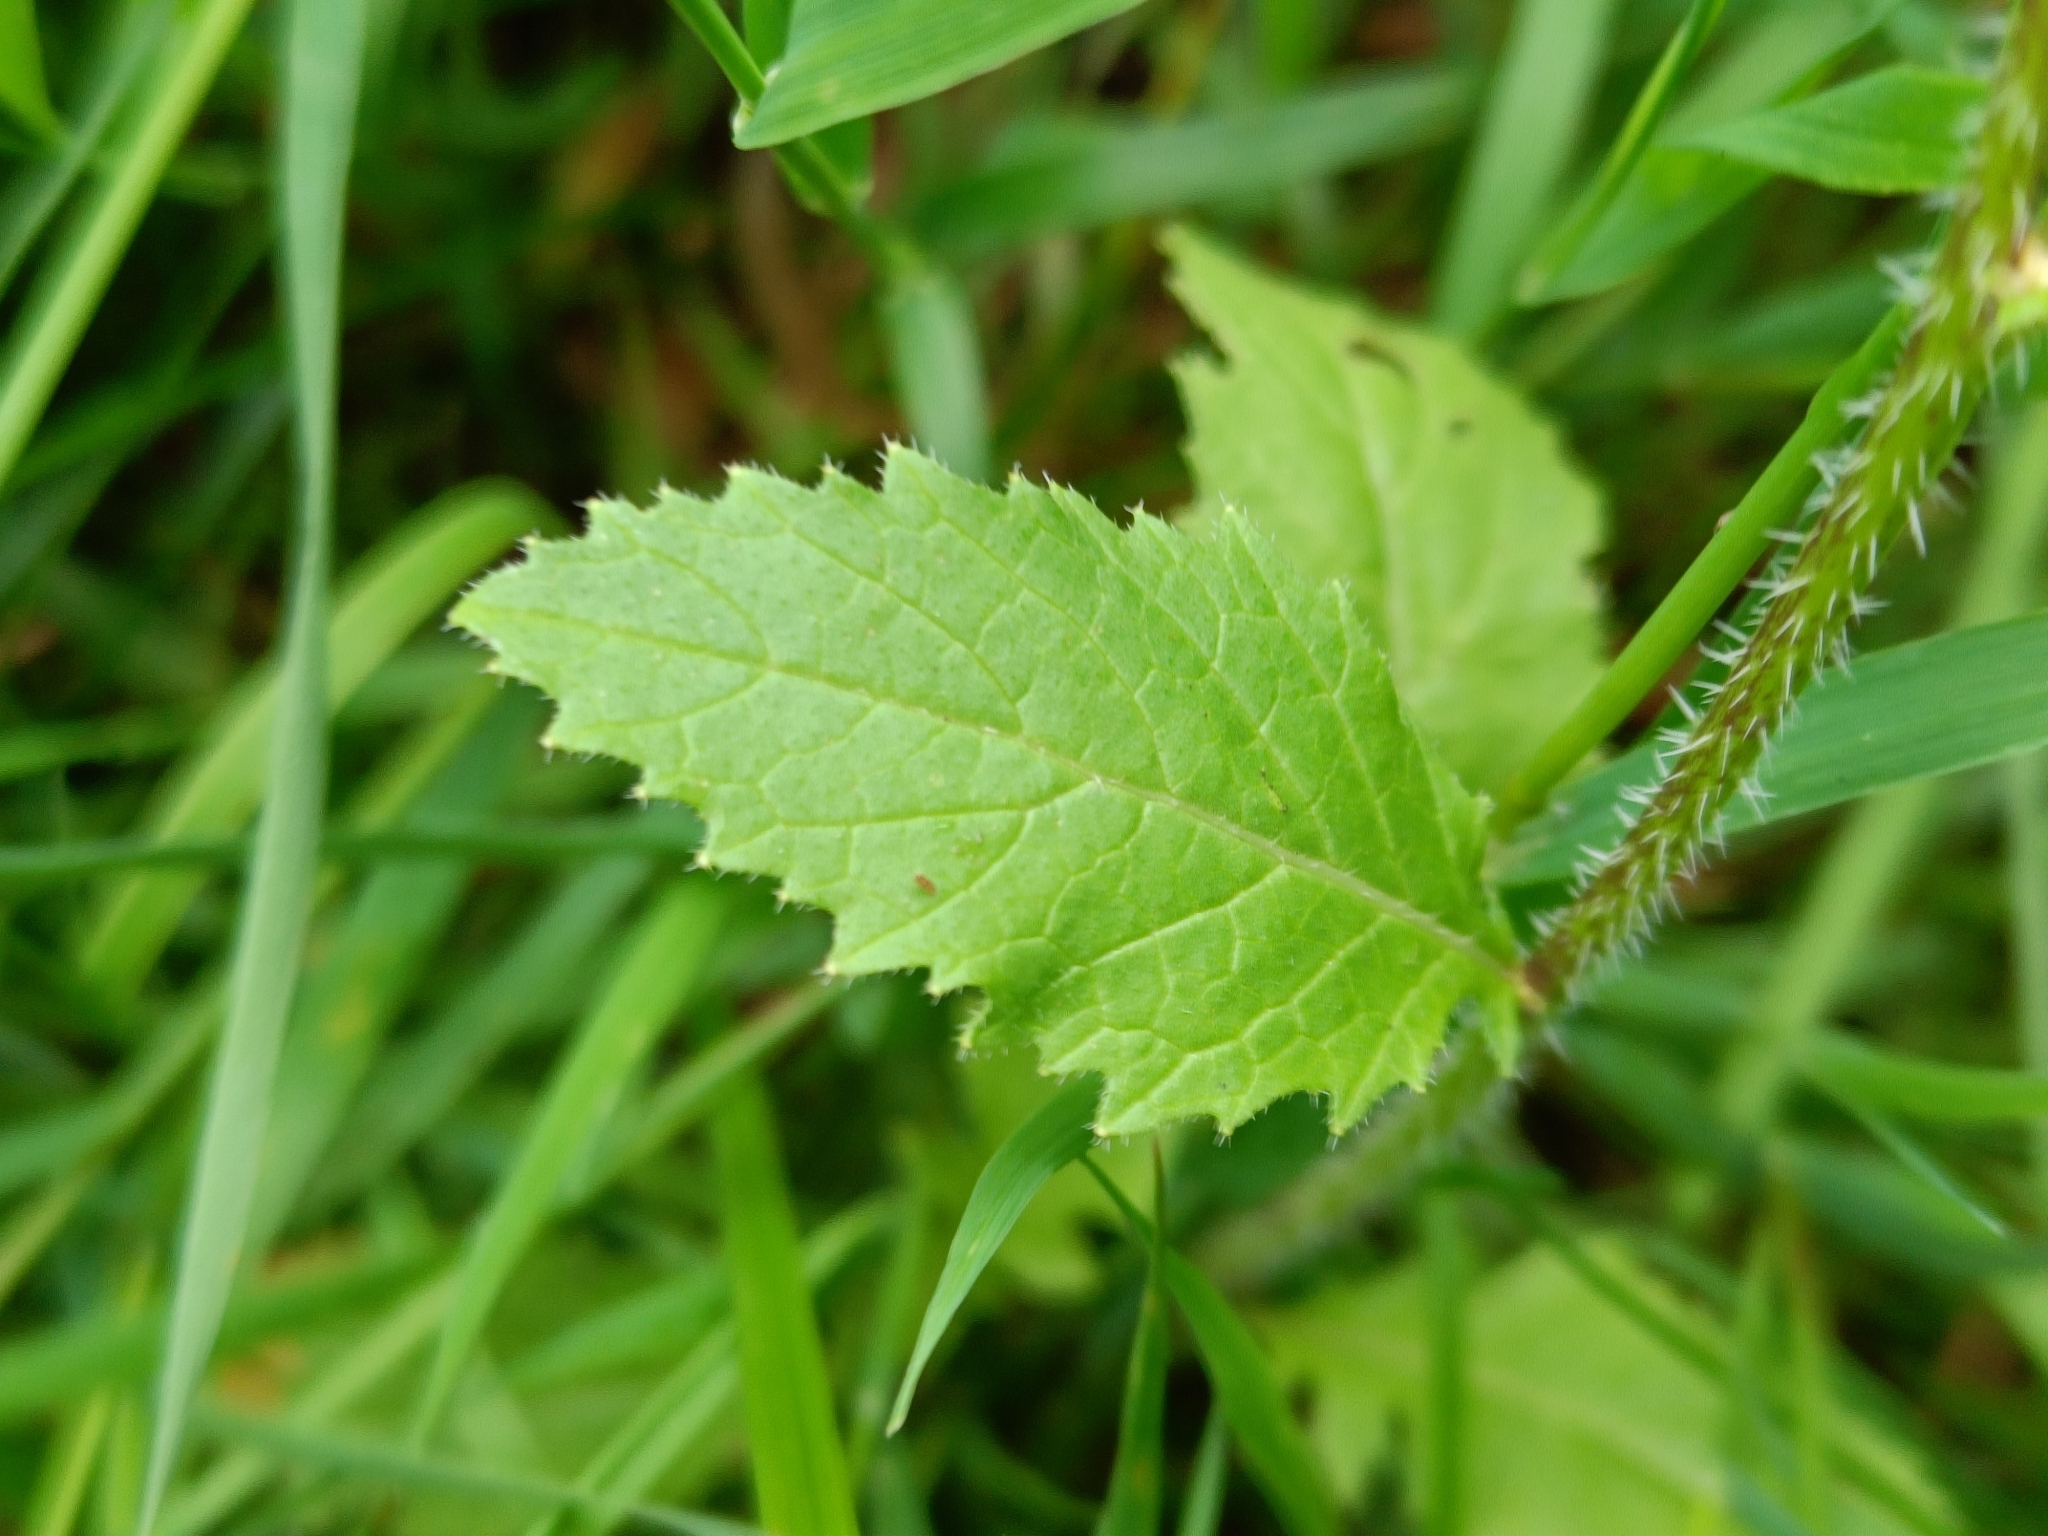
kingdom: Plantae
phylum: Tracheophyta
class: Magnoliopsida
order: Brassicales
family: Brassicaceae
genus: Sinapis
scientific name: Sinapis arvensis
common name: Charlock
